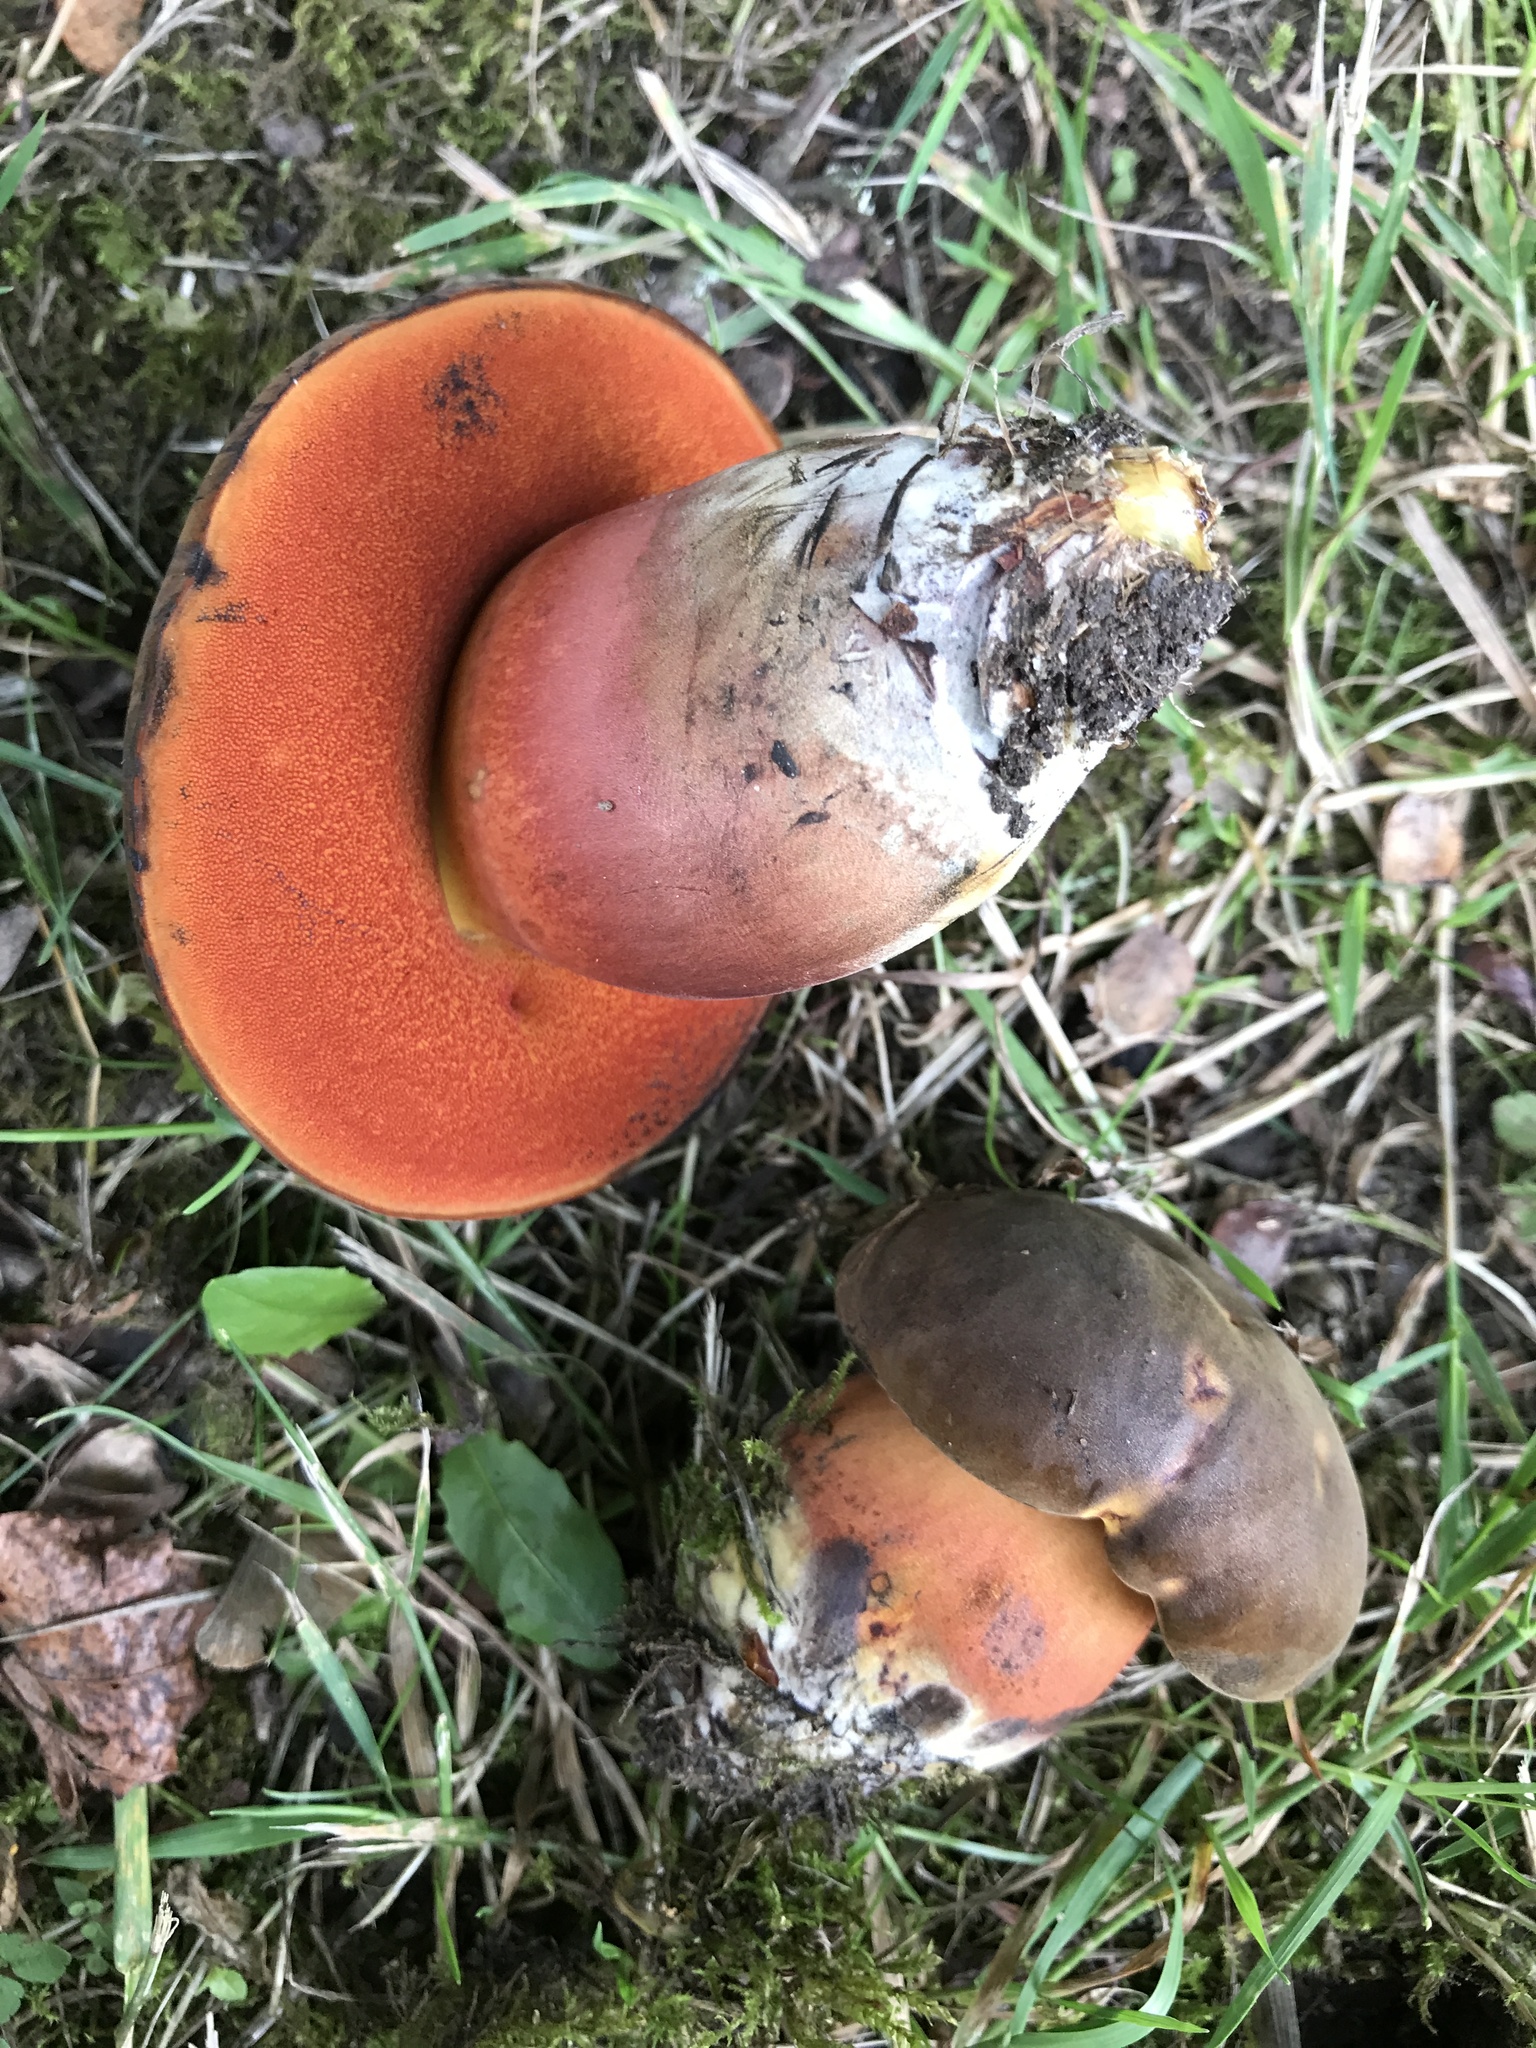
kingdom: Fungi
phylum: Basidiomycota
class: Agaricomycetes
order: Boletales
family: Boletaceae
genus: Neoboletus
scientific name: Neoboletus luridiformis
